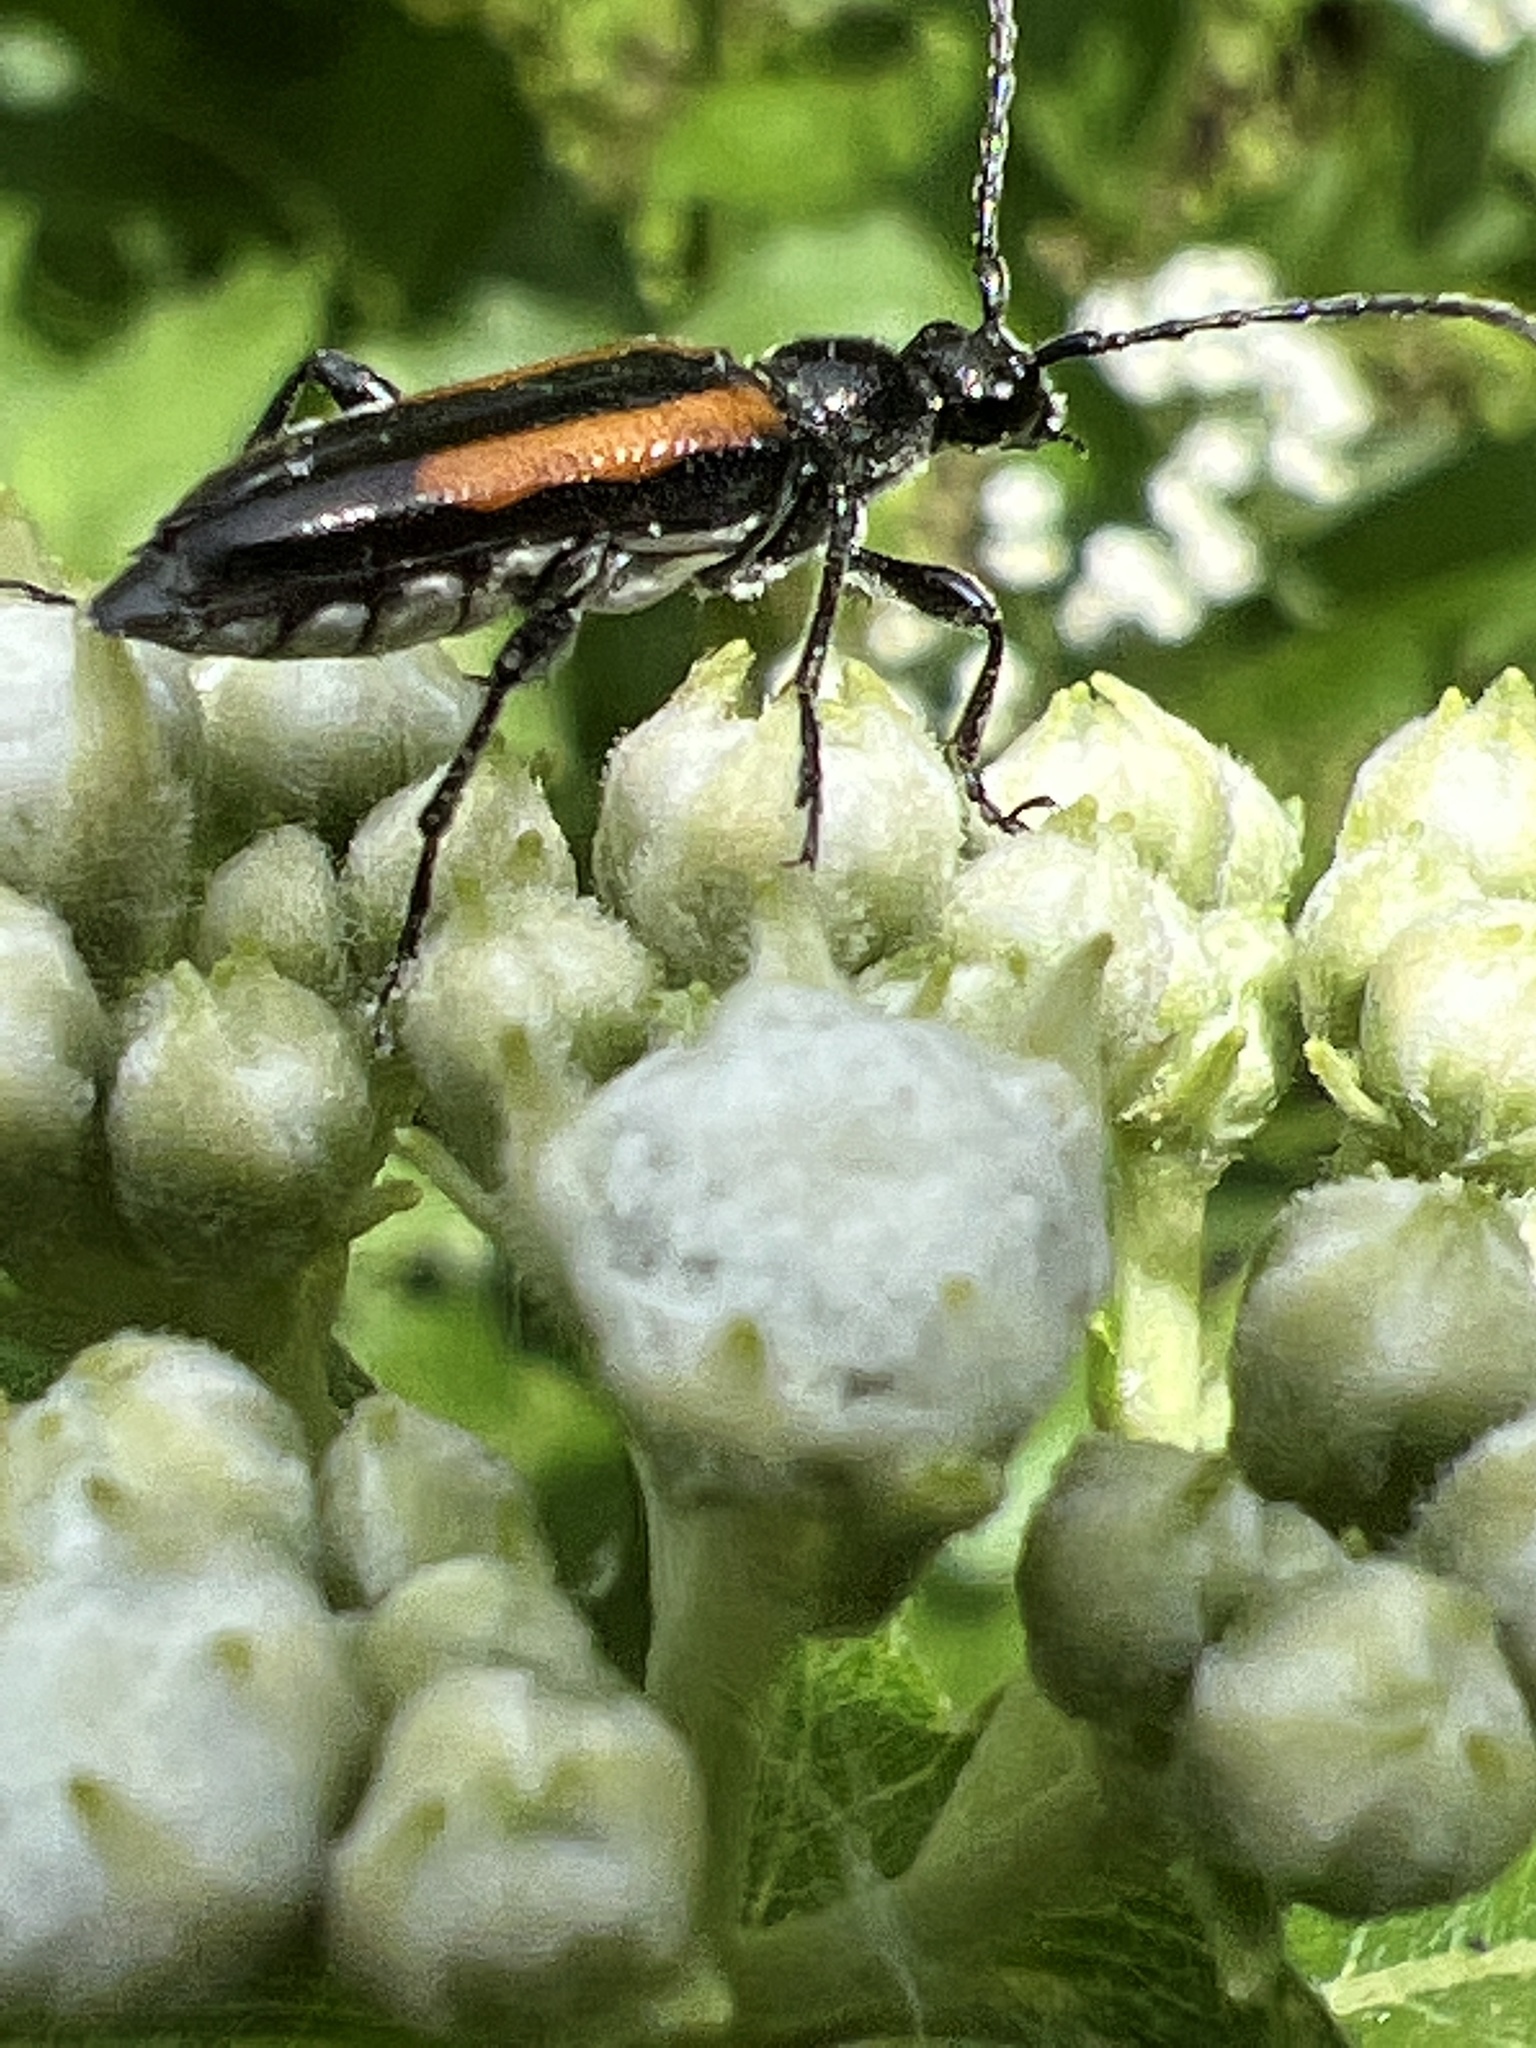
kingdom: Animalia
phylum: Arthropoda
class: Insecta
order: Coleoptera
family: Cerambycidae
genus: Strangalepta
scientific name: Strangalepta abbreviata
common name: Strangalepta flower longhorn beetle
